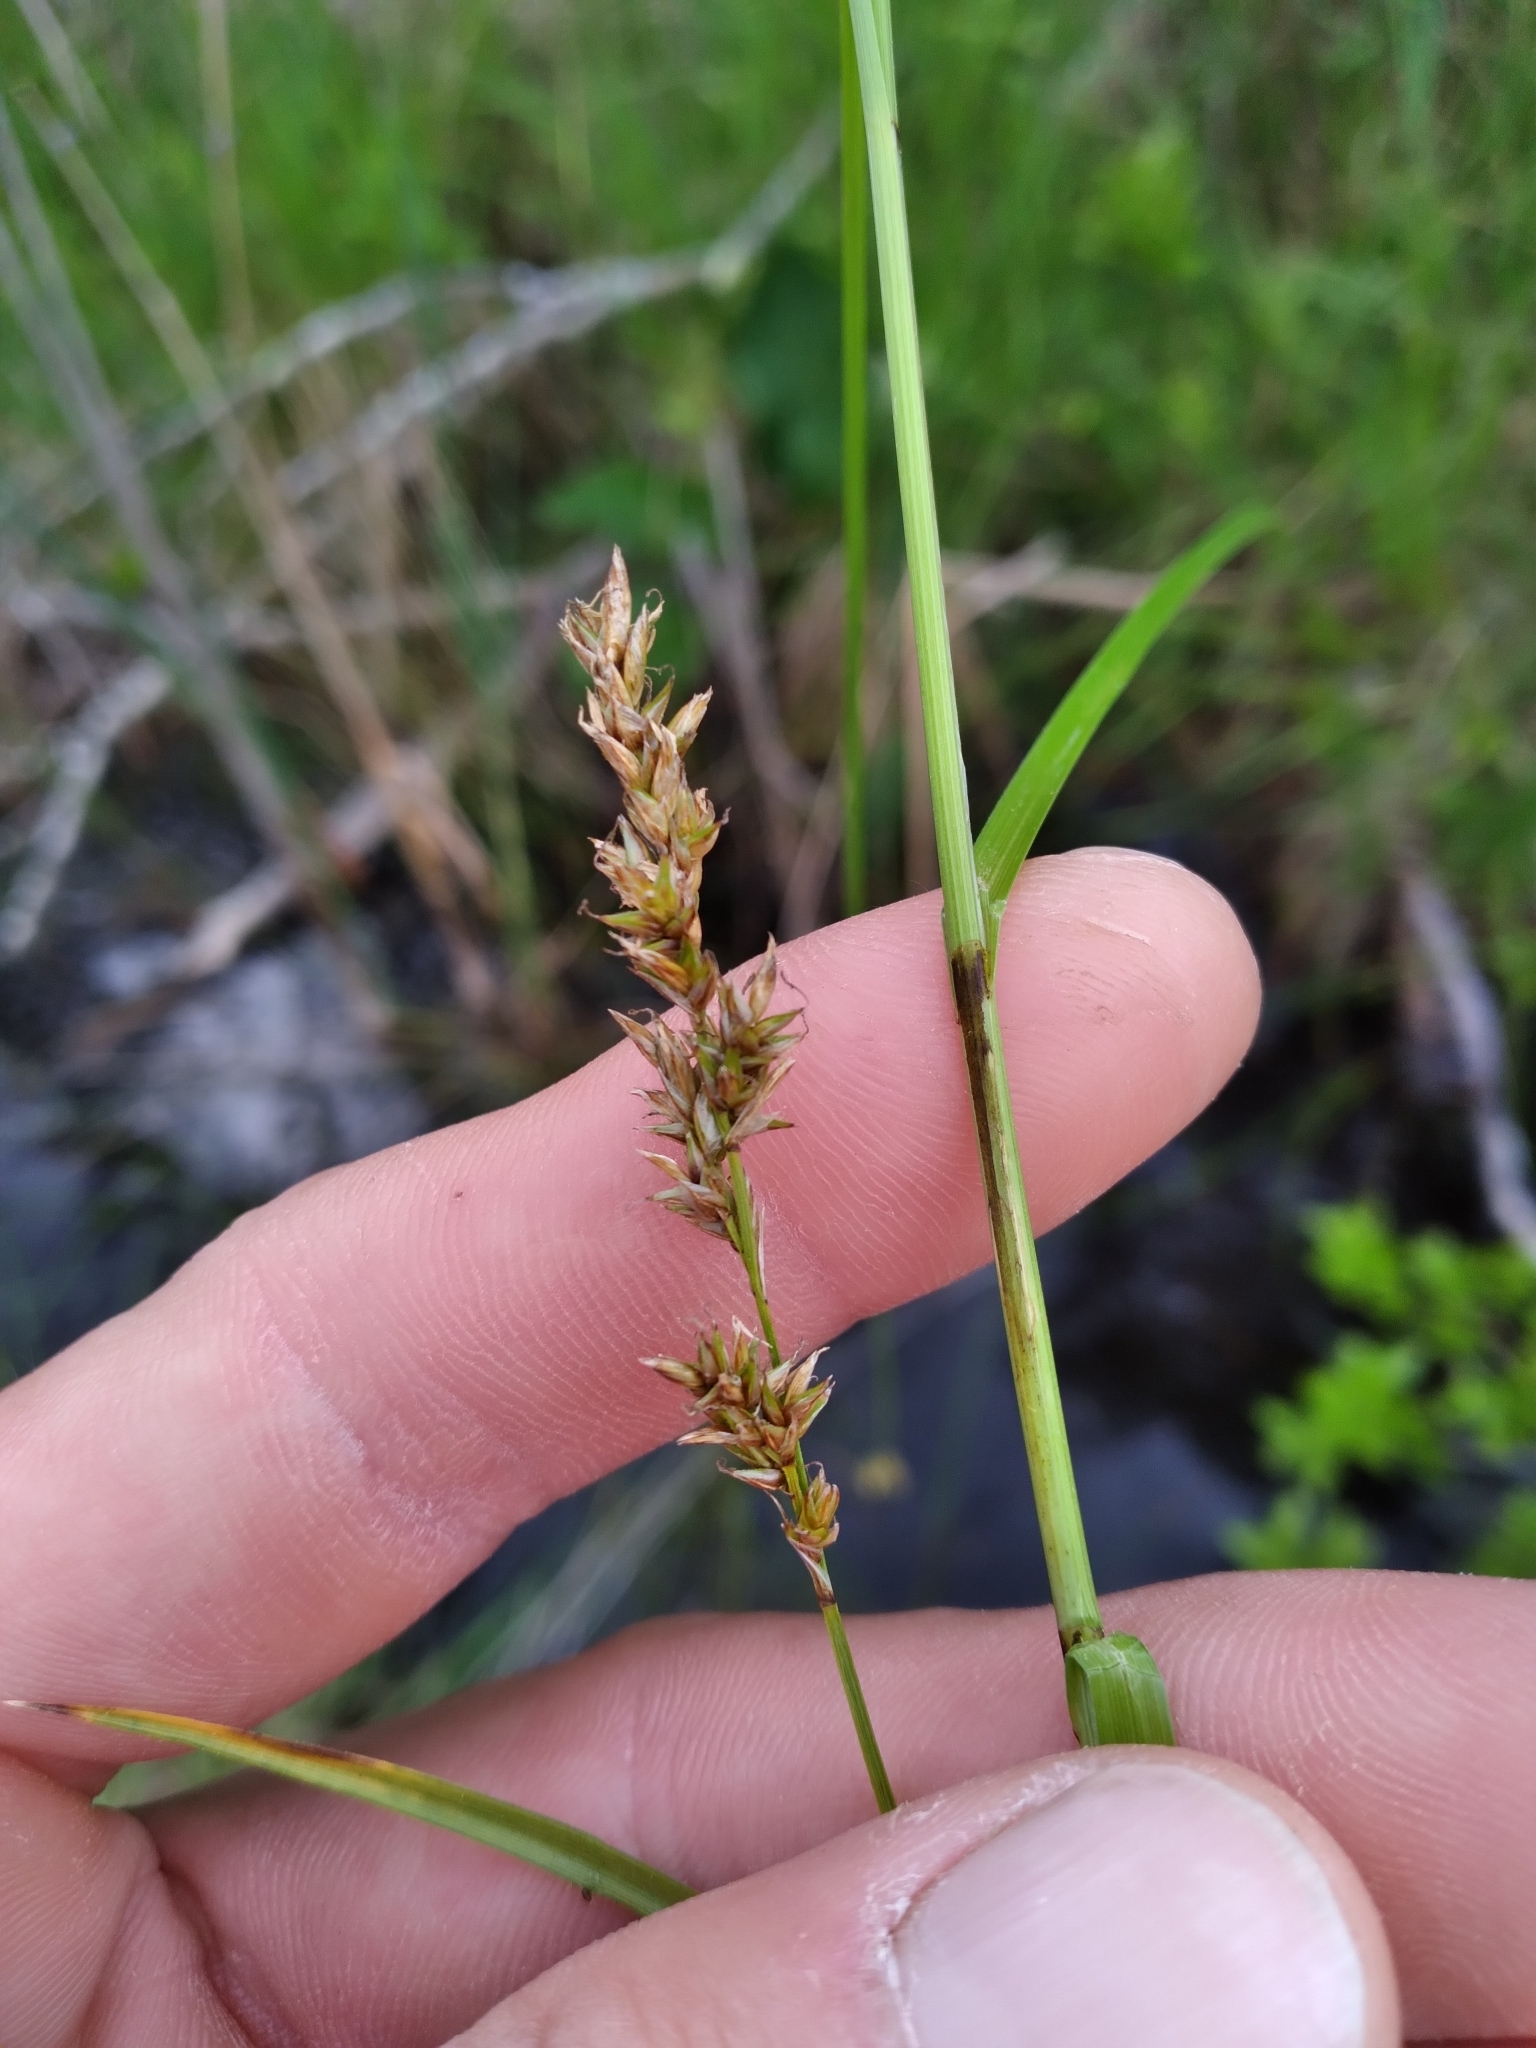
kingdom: Plantae
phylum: Tracheophyta
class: Liliopsida
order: Poales
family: Cyperaceae
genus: Carex
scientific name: Carex prairea
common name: Prairie sedge
